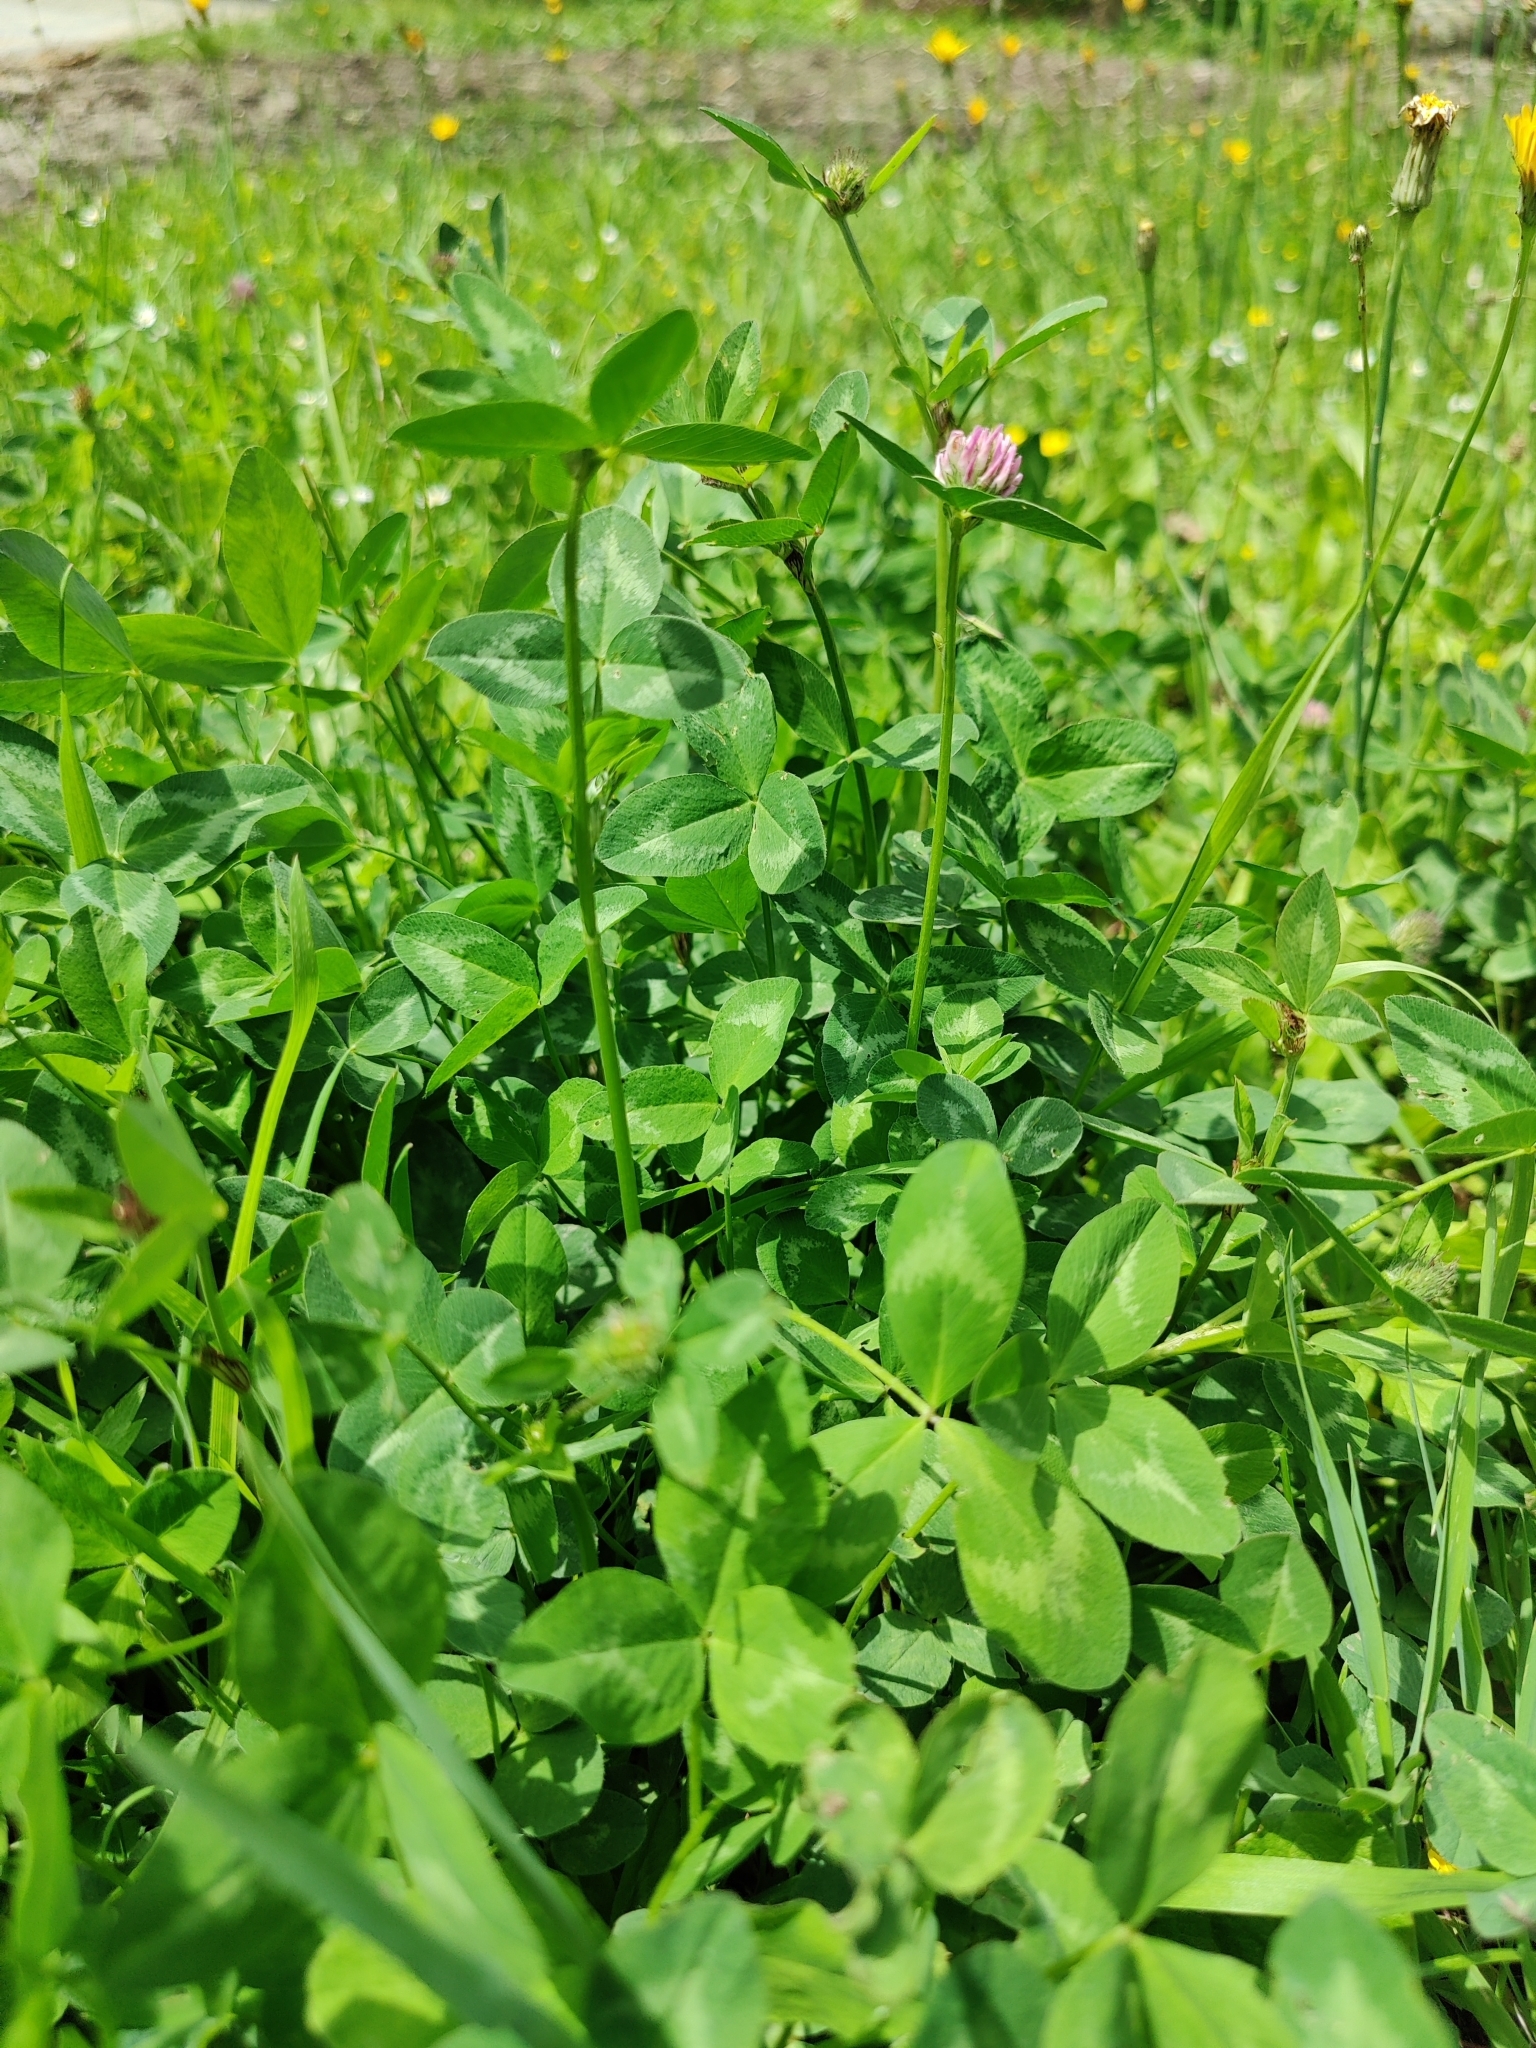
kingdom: Plantae
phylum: Tracheophyta
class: Magnoliopsida
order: Fabales
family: Fabaceae
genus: Trifolium
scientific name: Trifolium pratense
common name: Red clover
